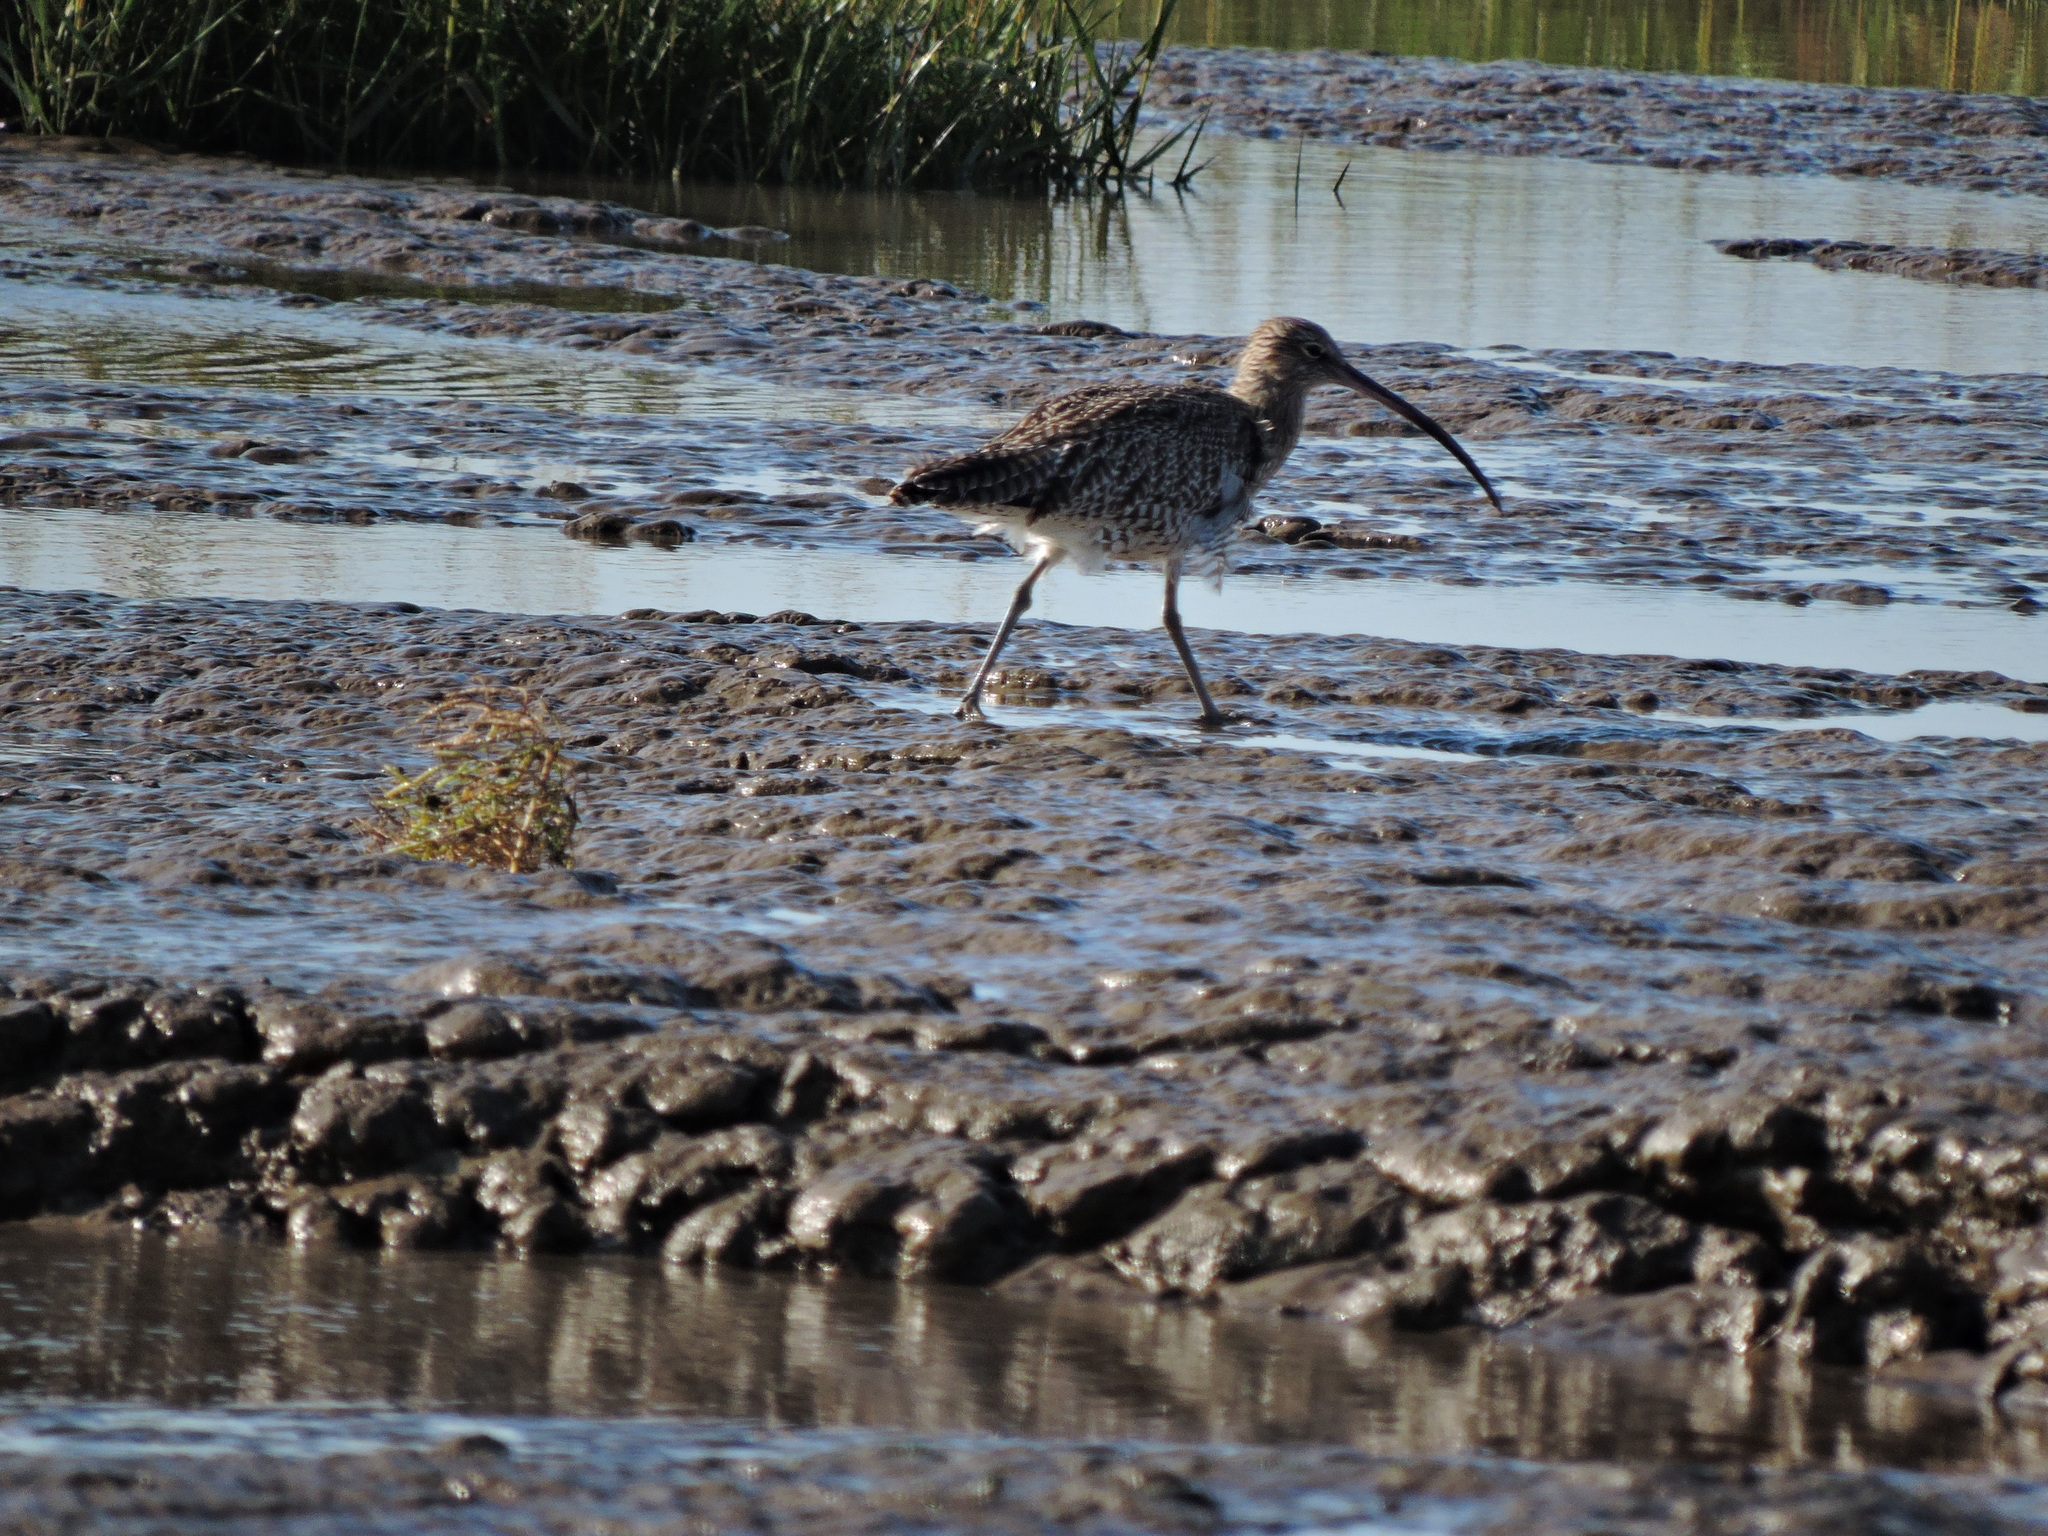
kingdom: Animalia
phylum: Chordata
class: Aves
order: Charadriiformes
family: Scolopacidae
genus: Numenius
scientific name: Numenius arquata
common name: Eurasian curlew
